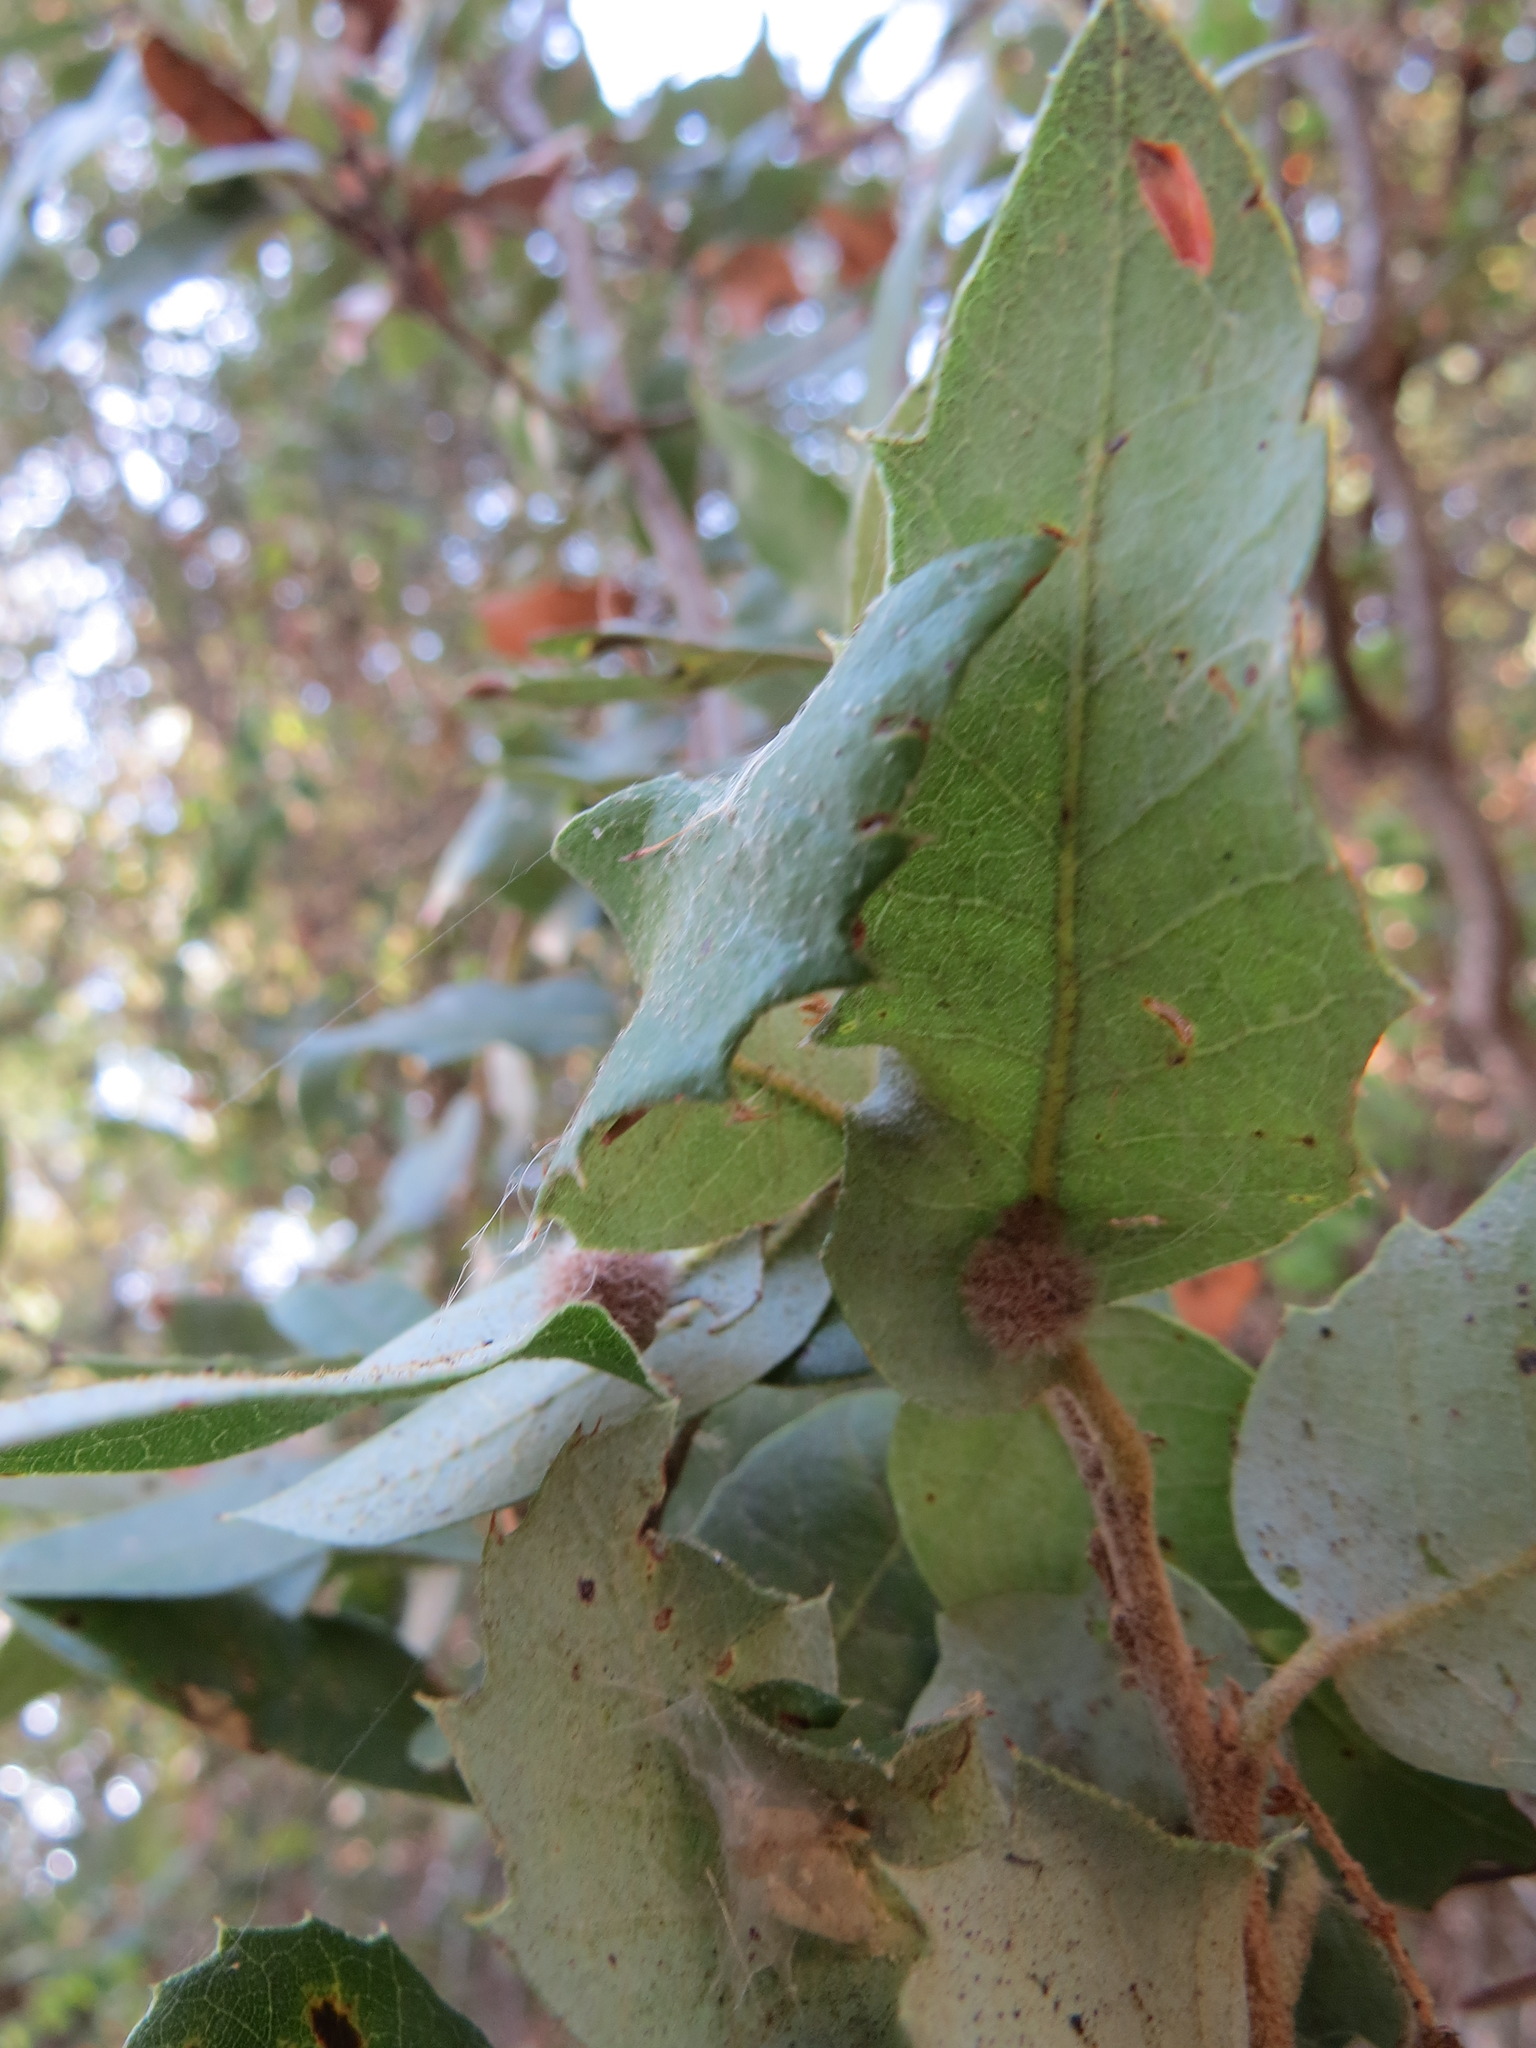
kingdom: Animalia
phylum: Arthropoda
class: Insecta
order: Hymenoptera
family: Cynipidae
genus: Disholandricus
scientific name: Disholandricus
